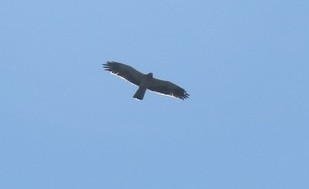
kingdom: Animalia
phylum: Chordata
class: Aves
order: Accipitriformes
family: Accipitridae
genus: Hieraaetus
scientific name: Hieraaetus pennatus
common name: Booted eagle
